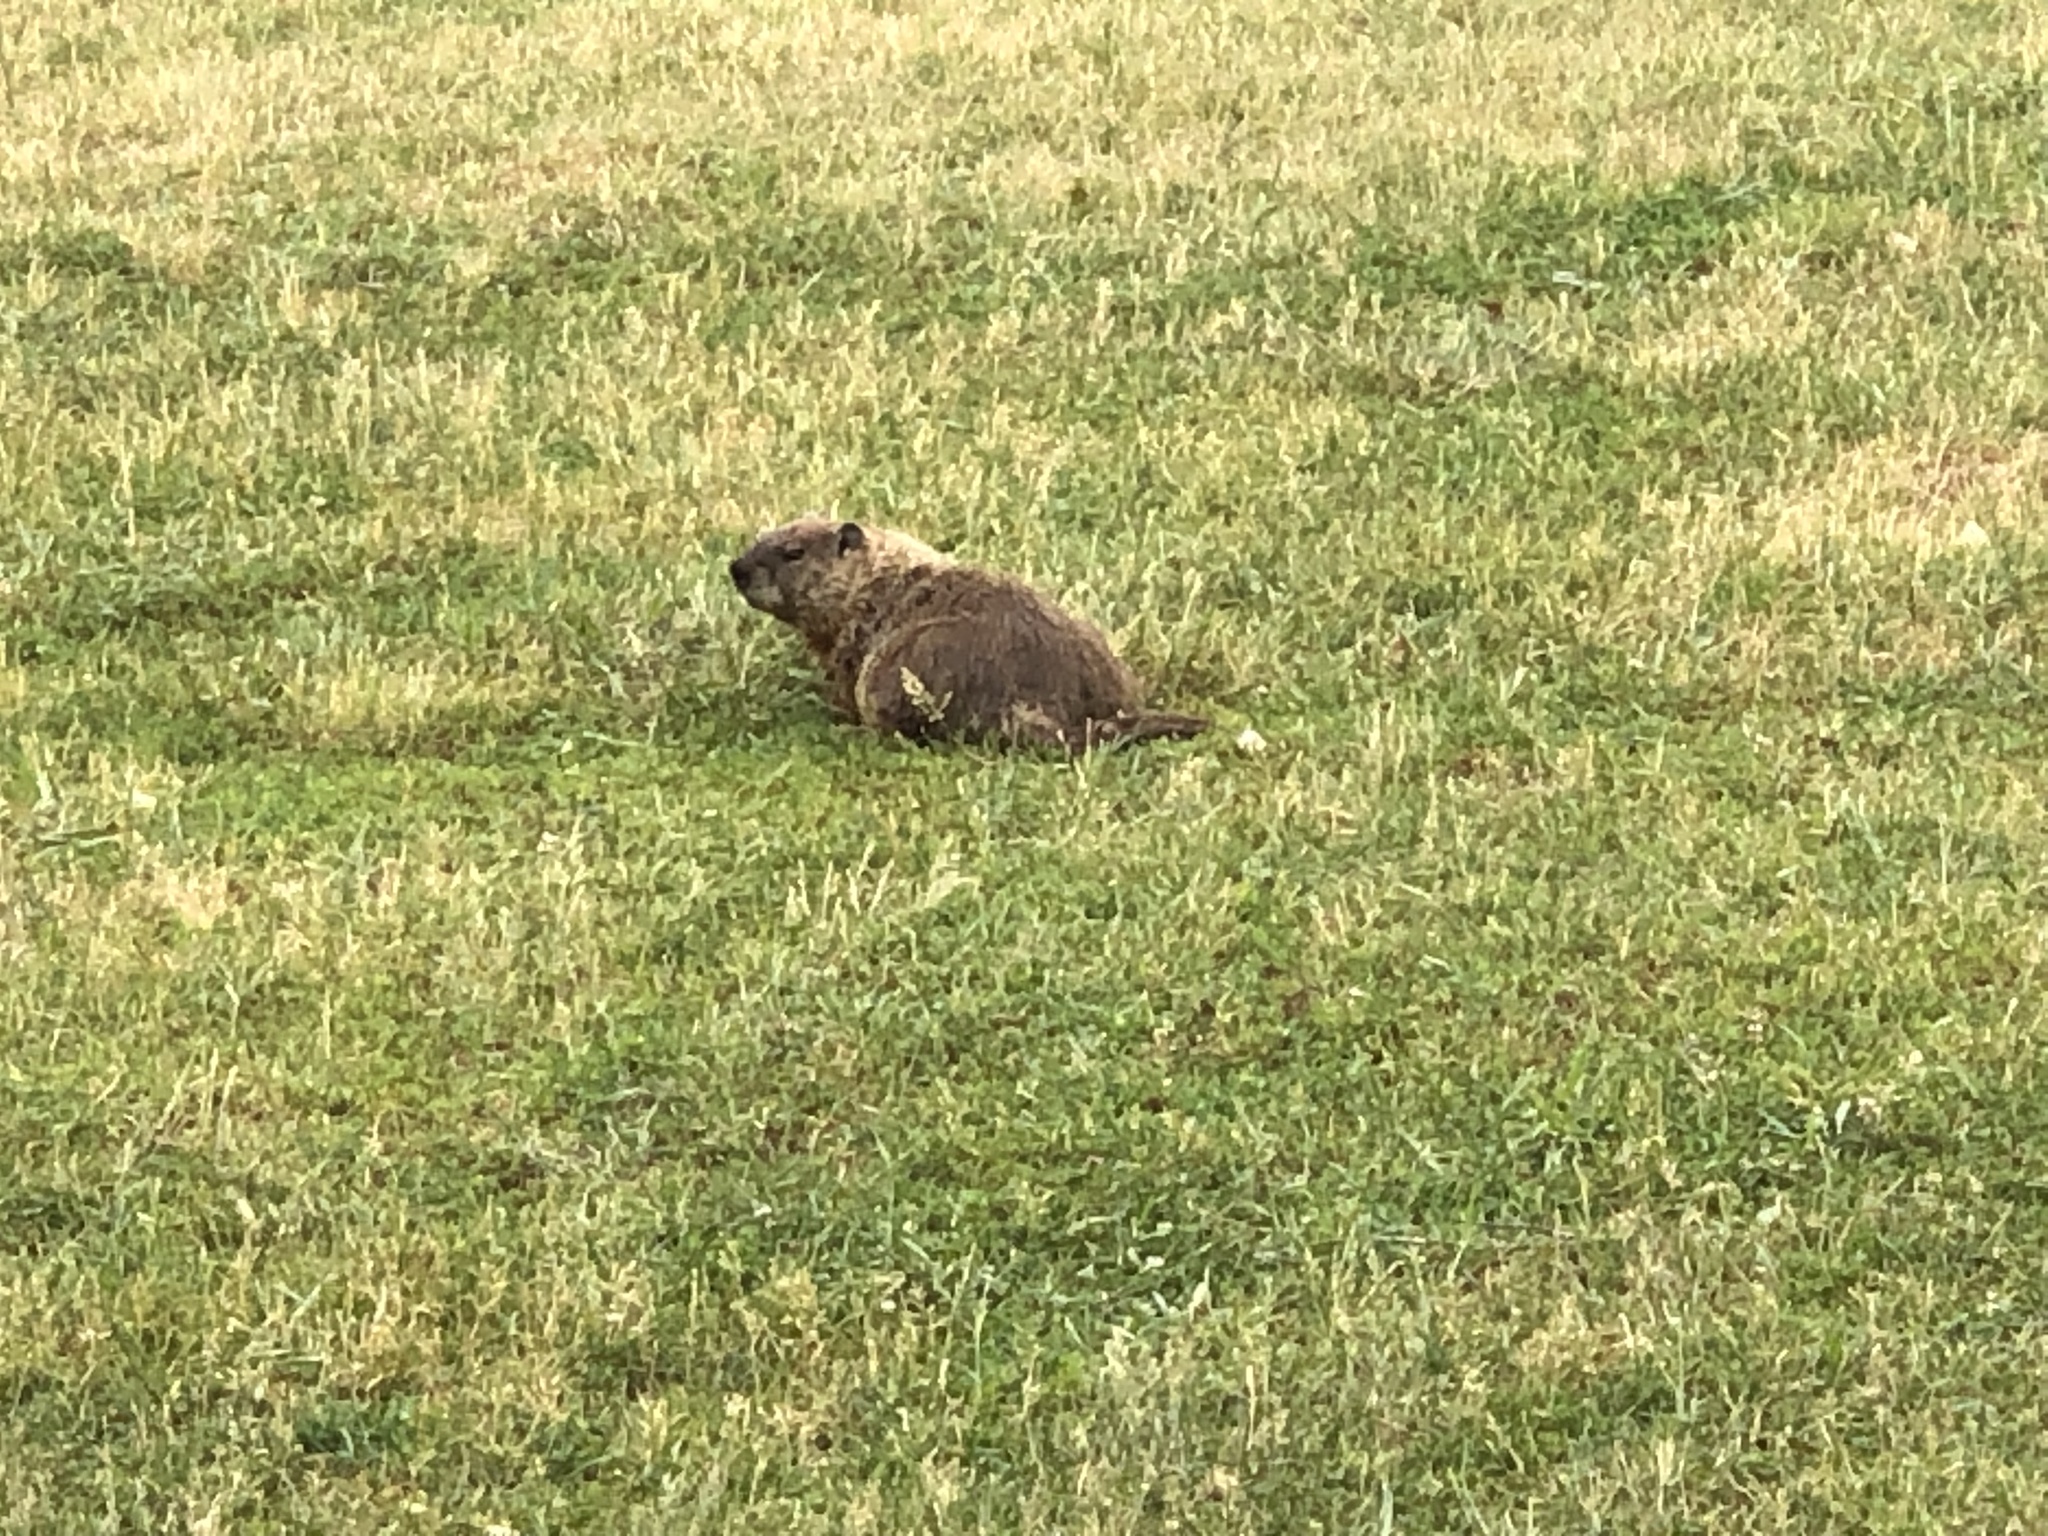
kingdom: Animalia
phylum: Chordata
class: Mammalia
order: Rodentia
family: Sciuridae
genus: Marmota
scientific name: Marmota monax
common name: Groundhog
